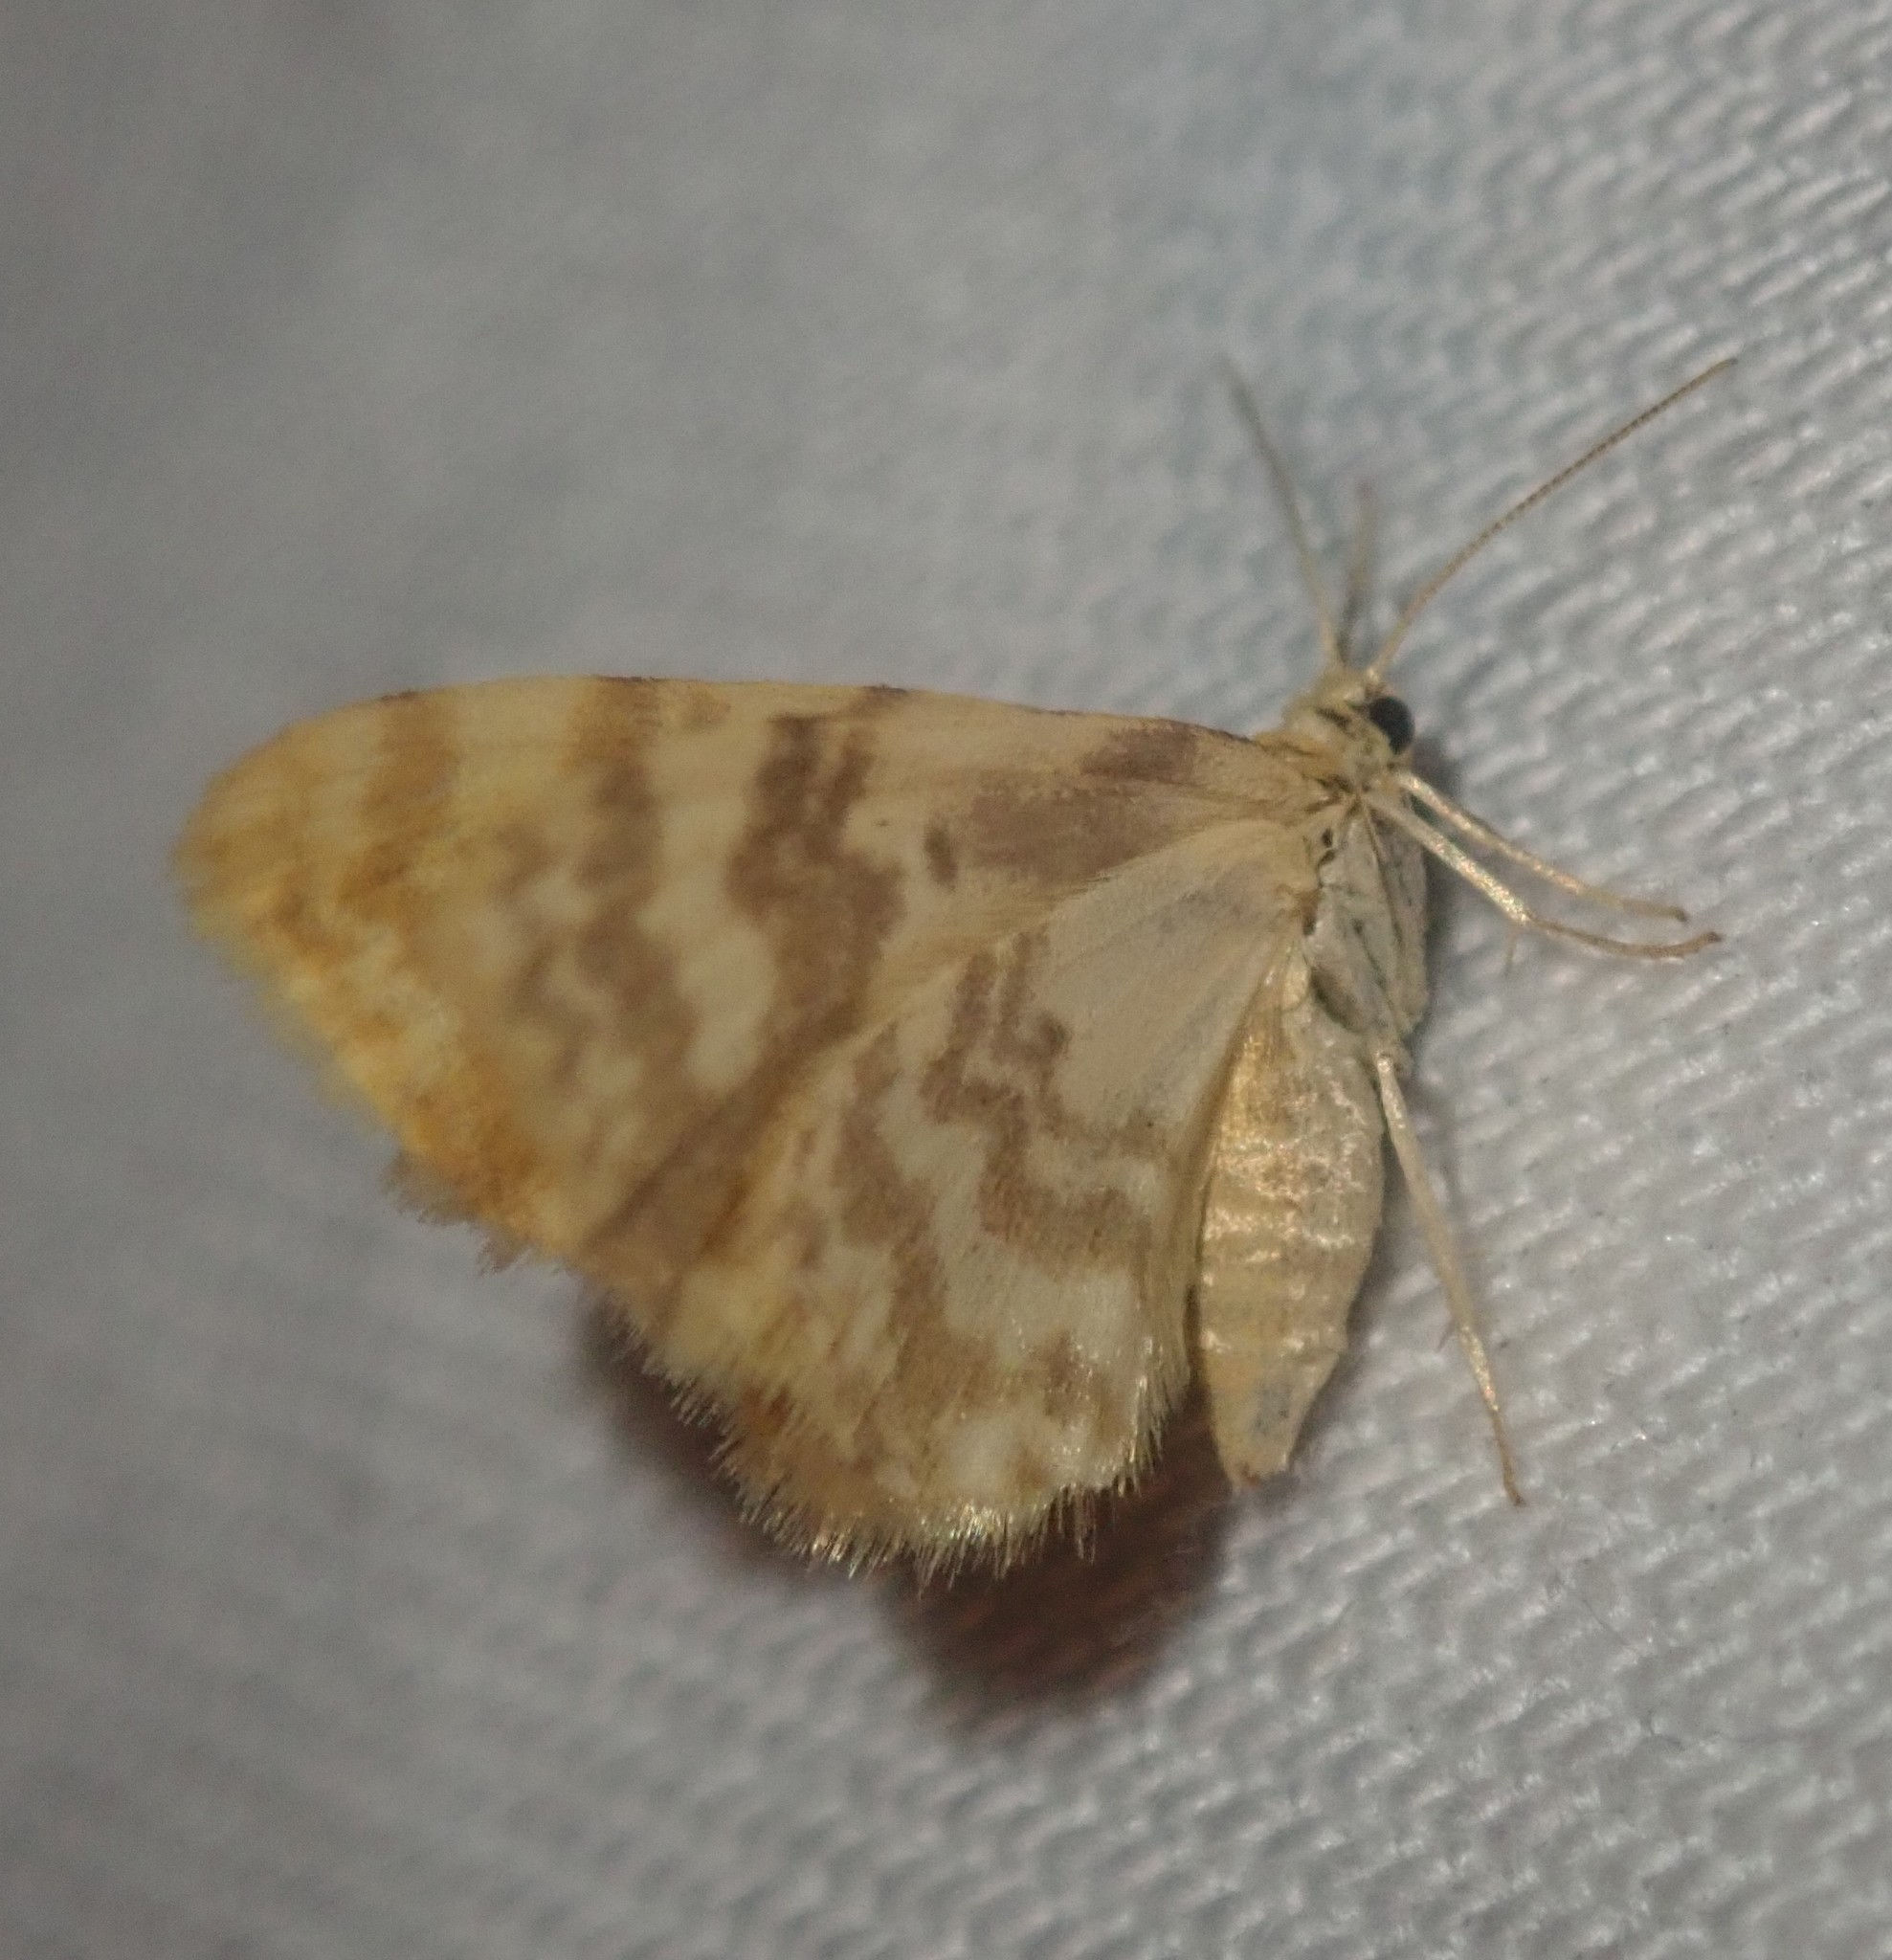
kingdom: Animalia
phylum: Arthropoda
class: Insecta
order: Lepidoptera
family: Geometridae
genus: Hydrelia
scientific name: Hydrelia flammeolaria
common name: Small yellow wave
